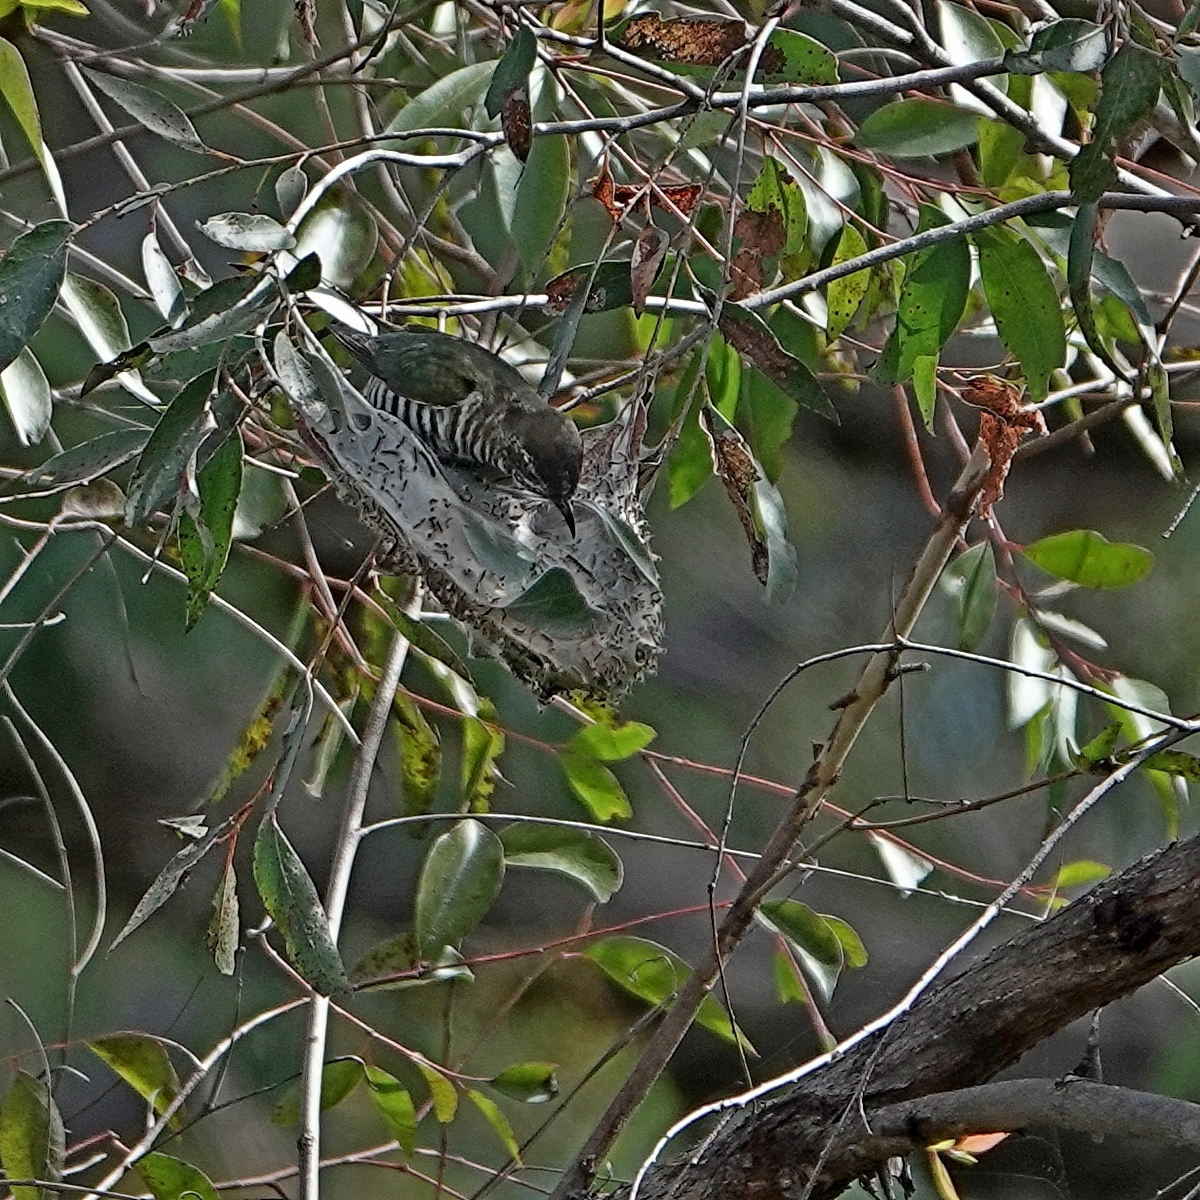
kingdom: Animalia
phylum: Chordata
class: Aves
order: Cuculiformes
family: Cuculidae
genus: Chrysococcyx
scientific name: Chrysococcyx lucidus
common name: Shining bronze cuckoo
